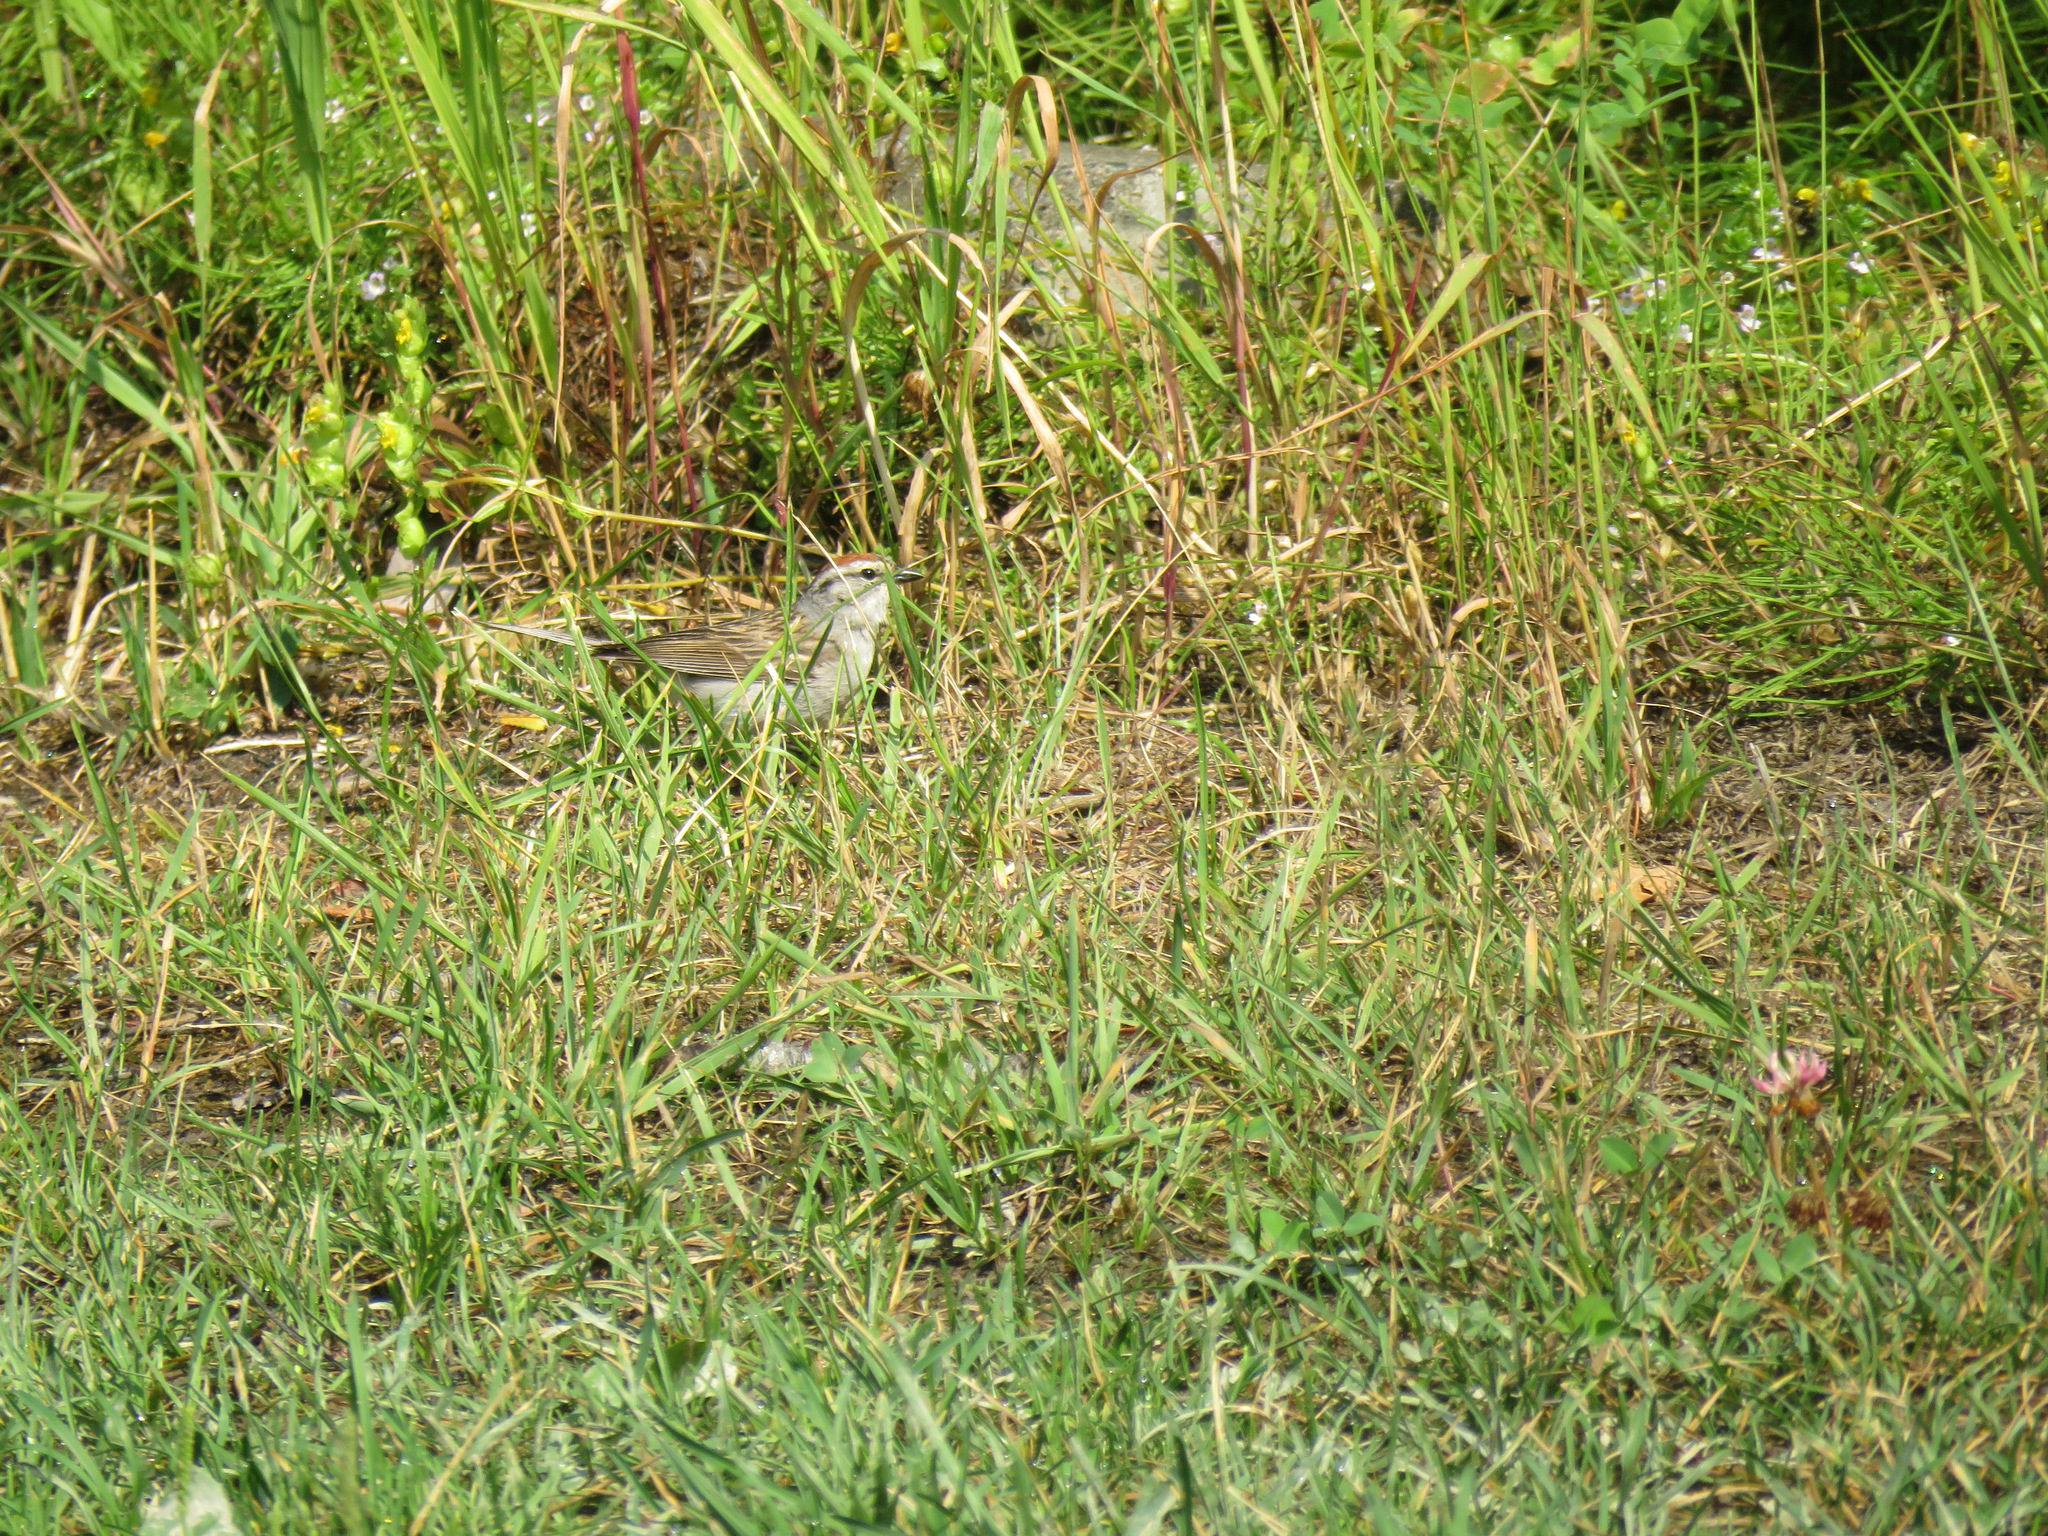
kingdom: Animalia
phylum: Chordata
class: Aves
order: Passeriformes
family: Passerellidae
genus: Spizella
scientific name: Spizella passerina
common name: Chipping sparrow
